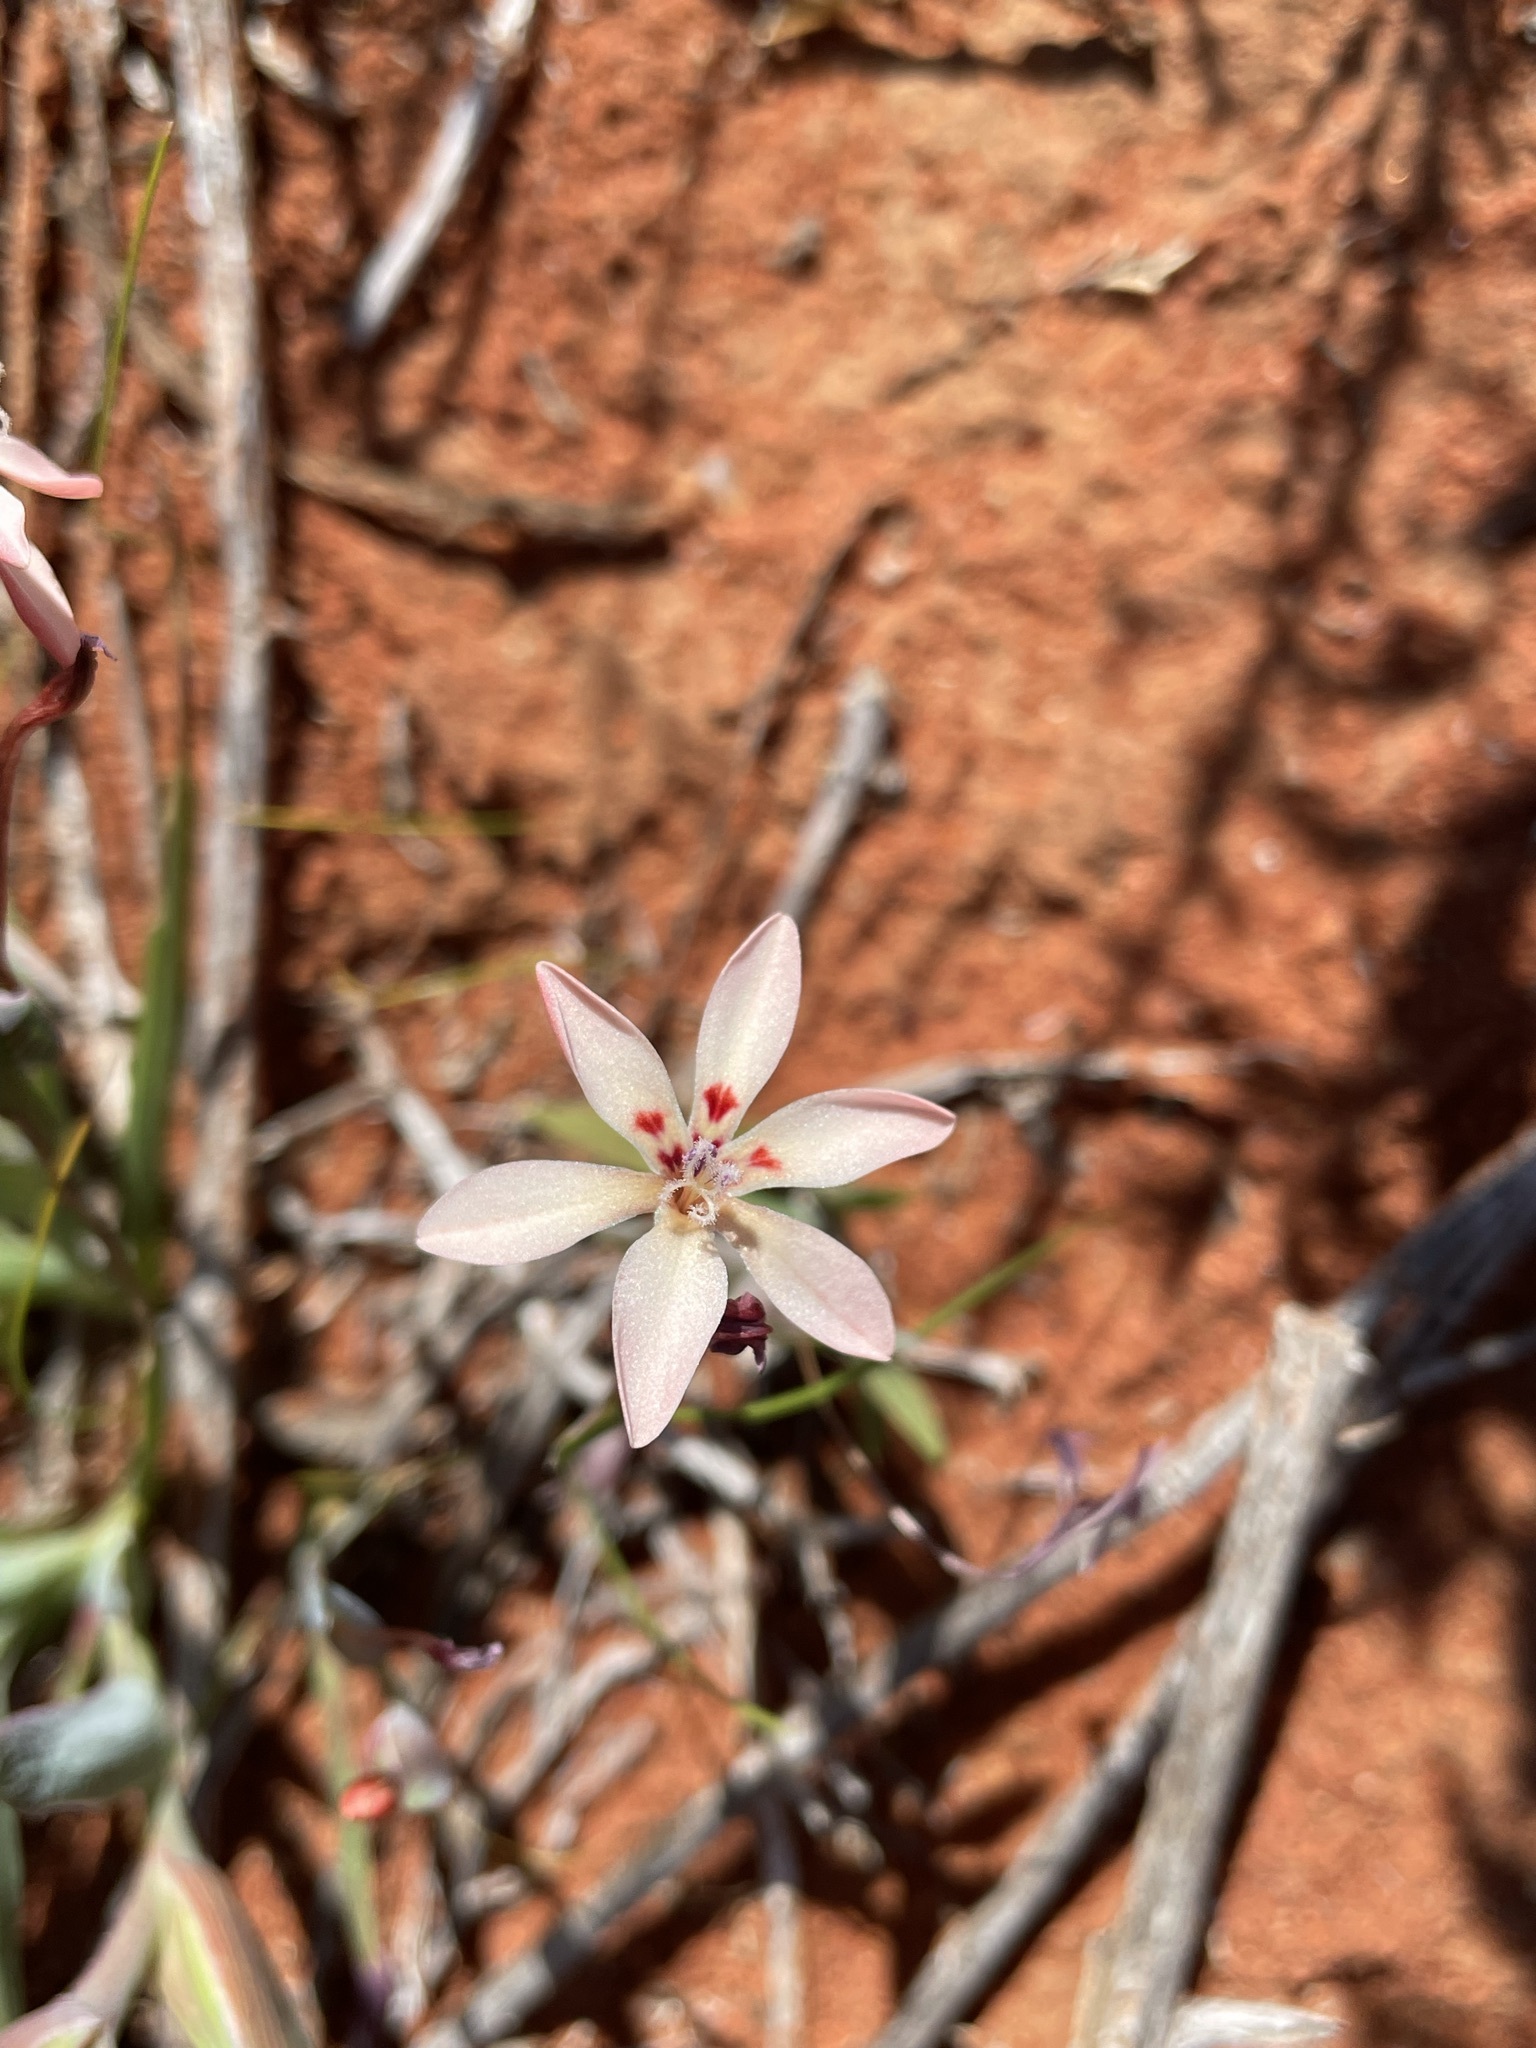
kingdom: Plantae
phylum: Tracheophyta
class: Liliopsida
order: Asparagales
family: Iridaceae
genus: Lapeirousia
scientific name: Lapeirousia arenicola
